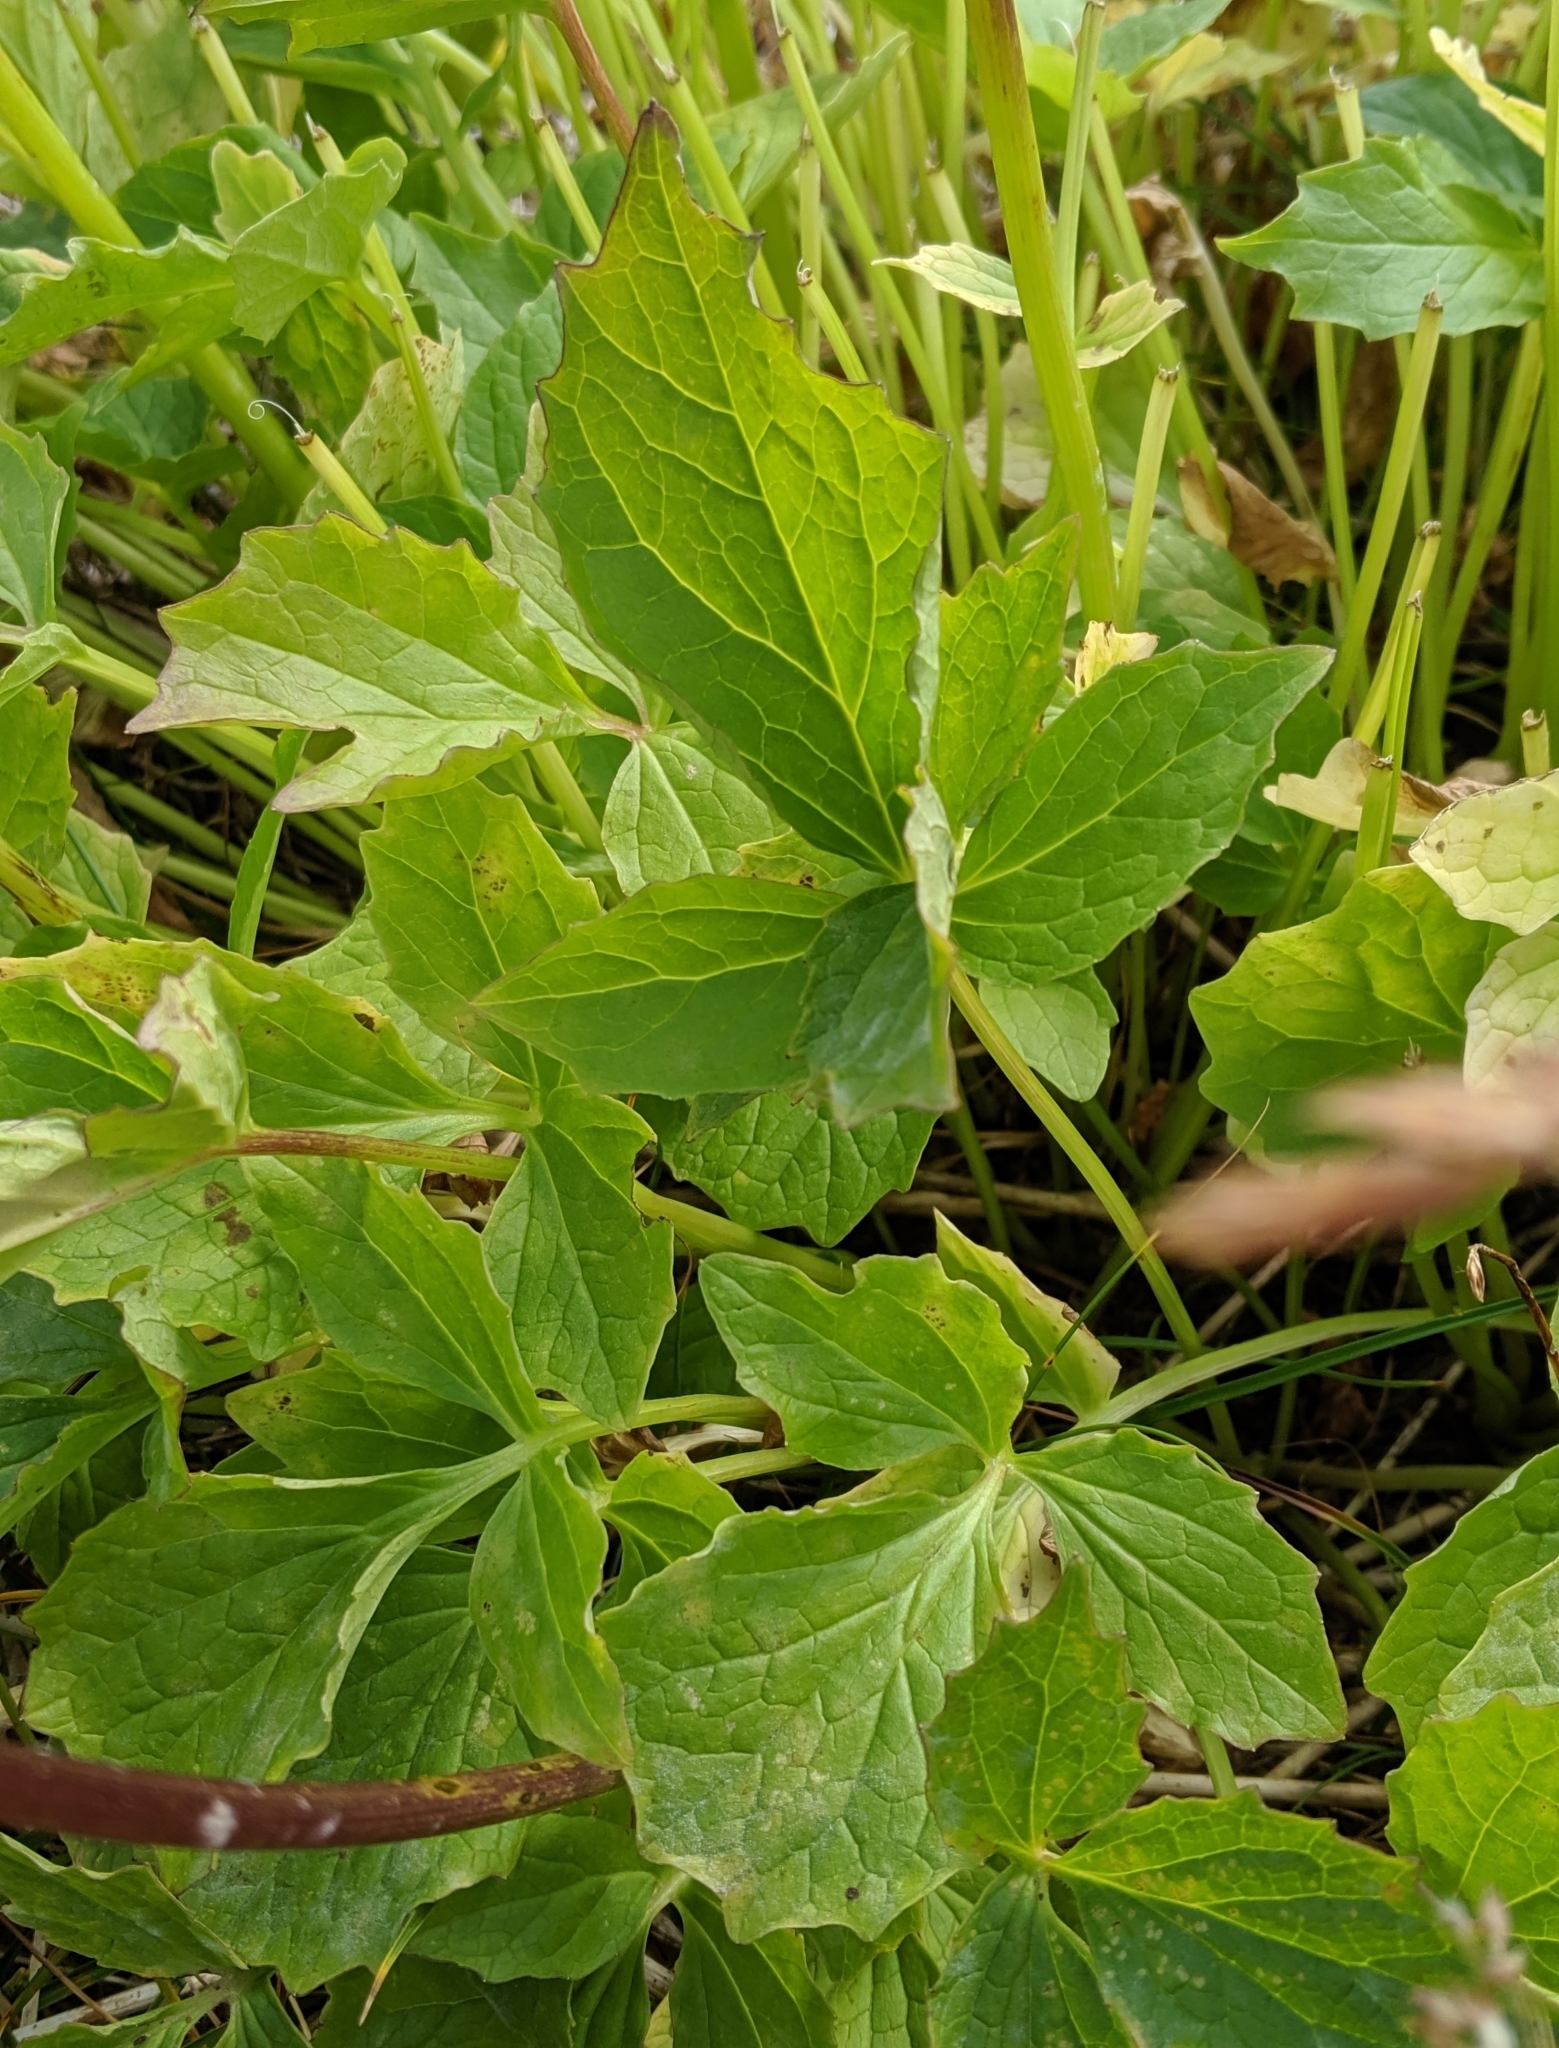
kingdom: Plantae
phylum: Tracheophyta
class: Magnoliopsida
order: Dipsacales
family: Caprifoliaceae
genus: Valeriana
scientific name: Valeriana sitchensis
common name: Pacific valerian
